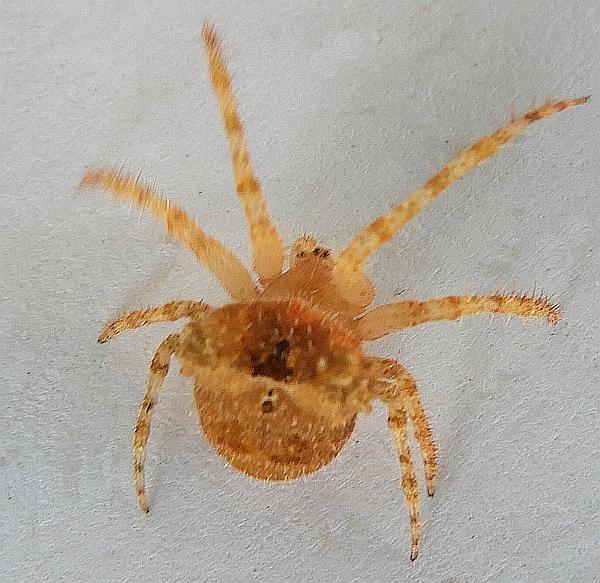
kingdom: Animalia
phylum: Arthropoda
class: Arachnida
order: Araneae
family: Araneidae
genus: Kaira
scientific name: Kaira alba
